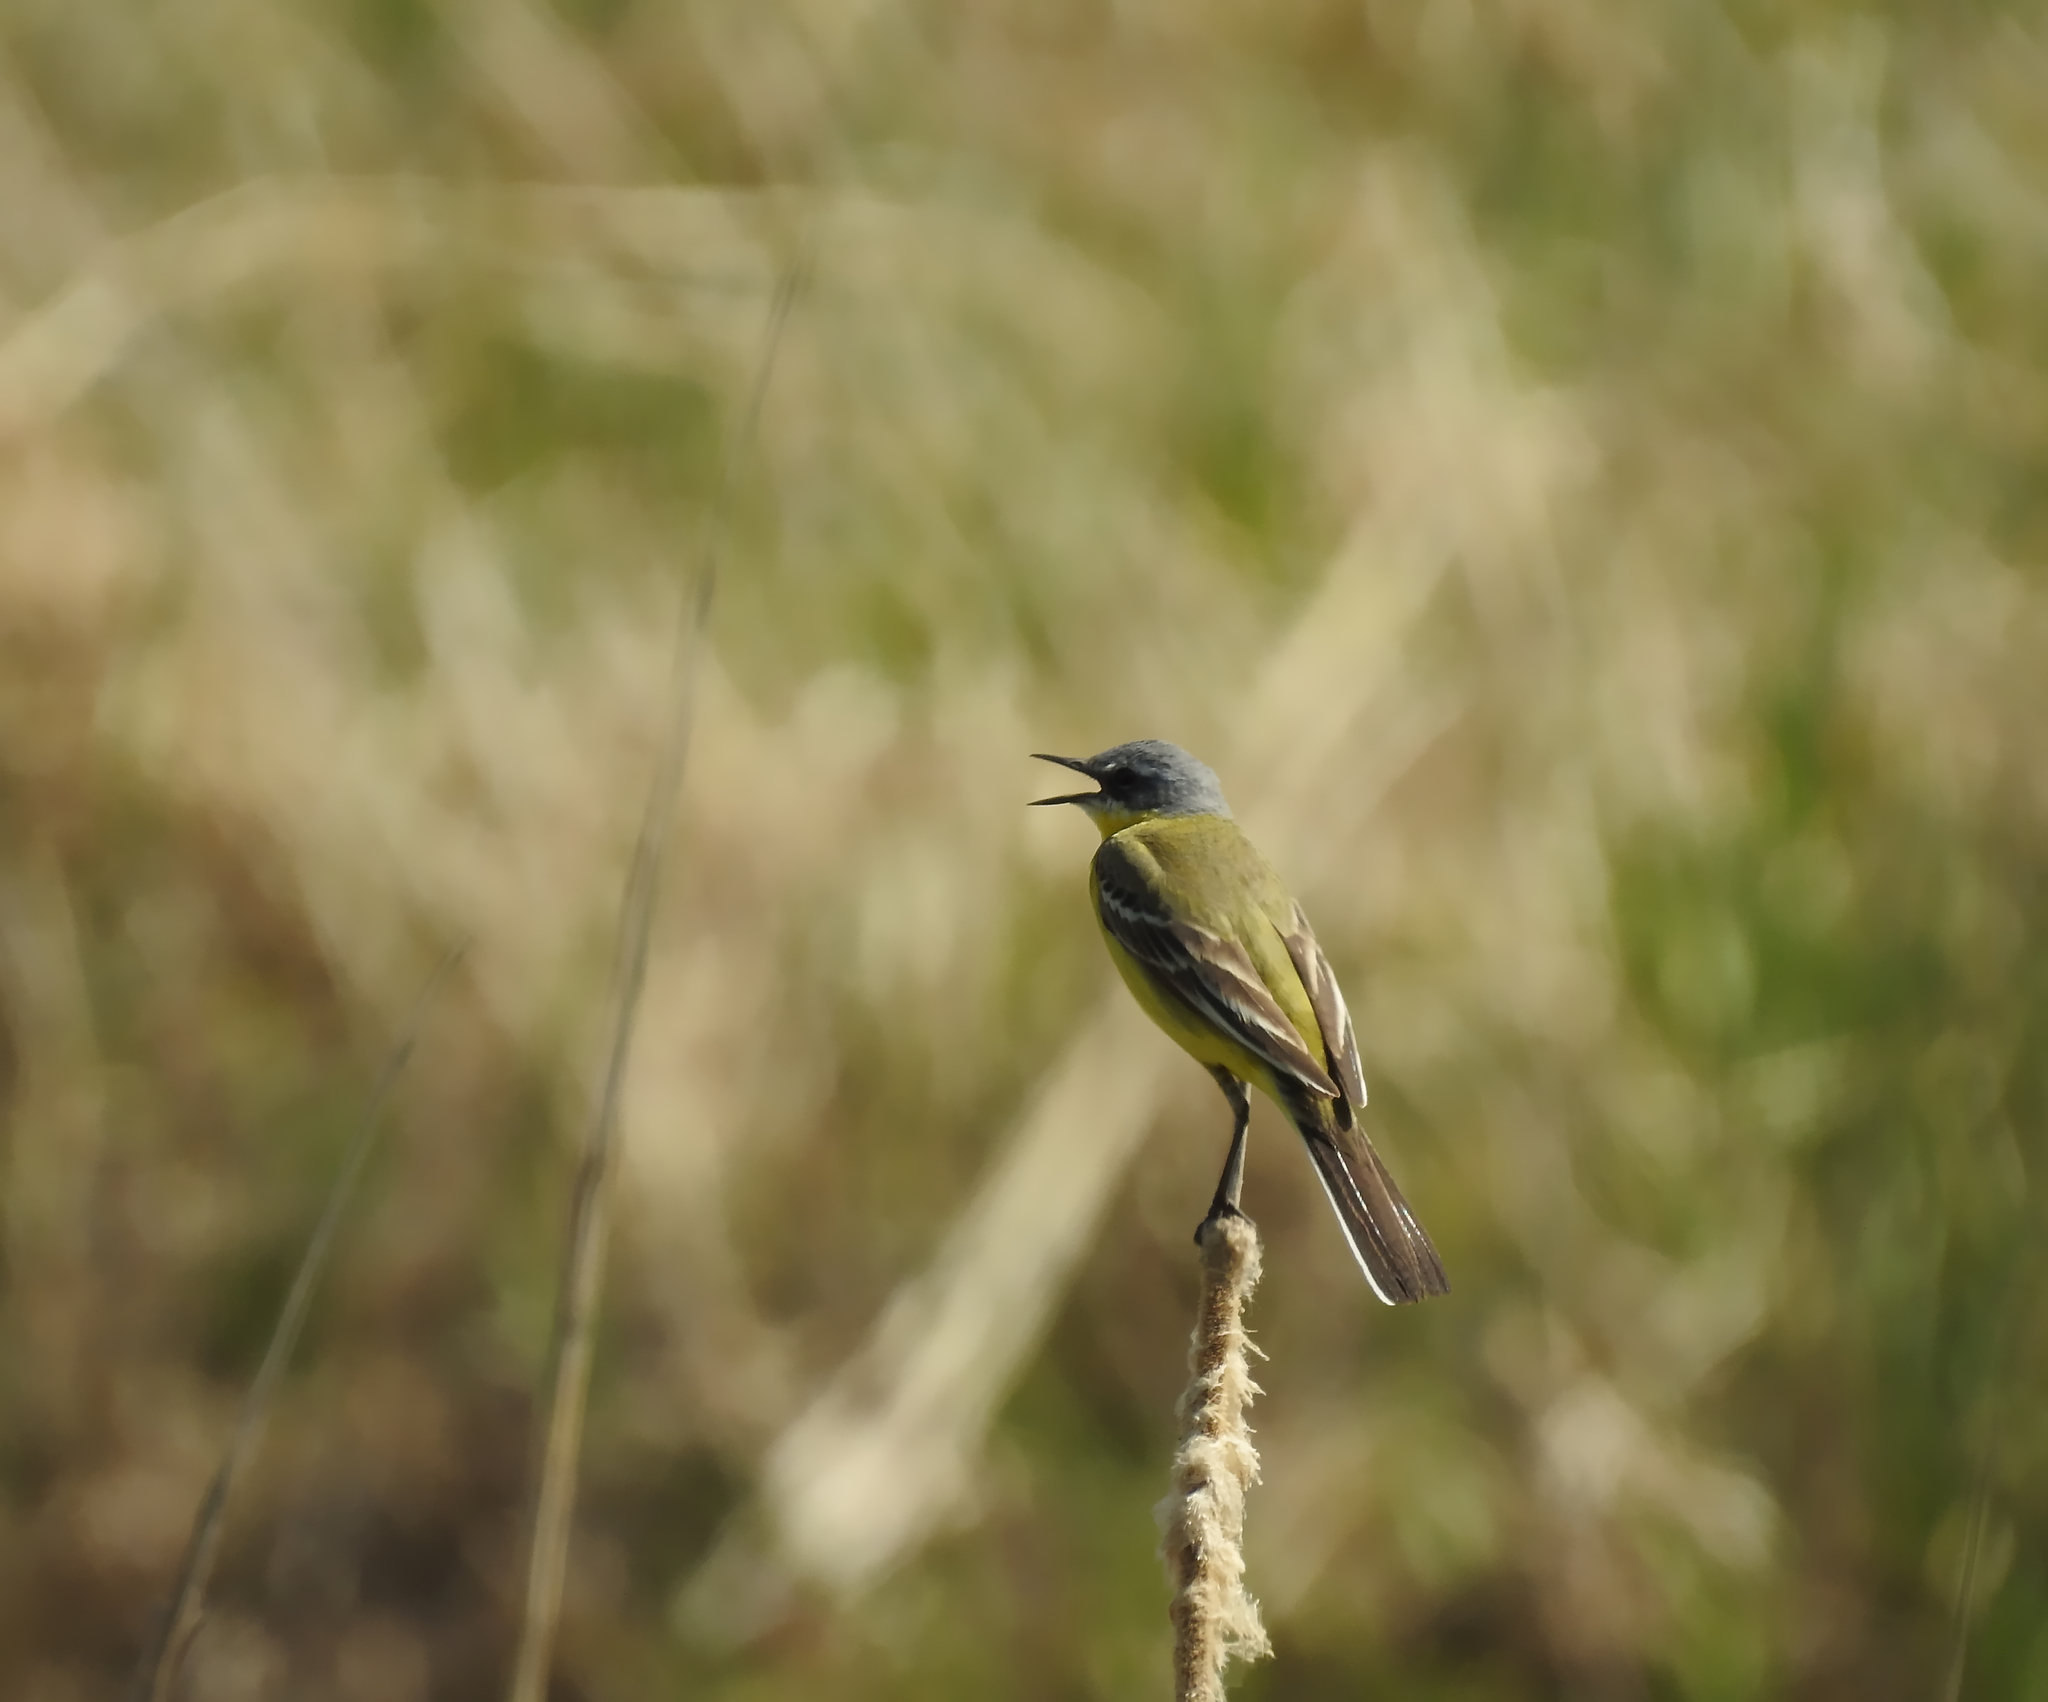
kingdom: Animalia
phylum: Chordata
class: Aves
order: Passeriformes
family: Motacillidae
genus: Motacilla
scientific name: Motacilla flava
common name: Western yellow wagtail
